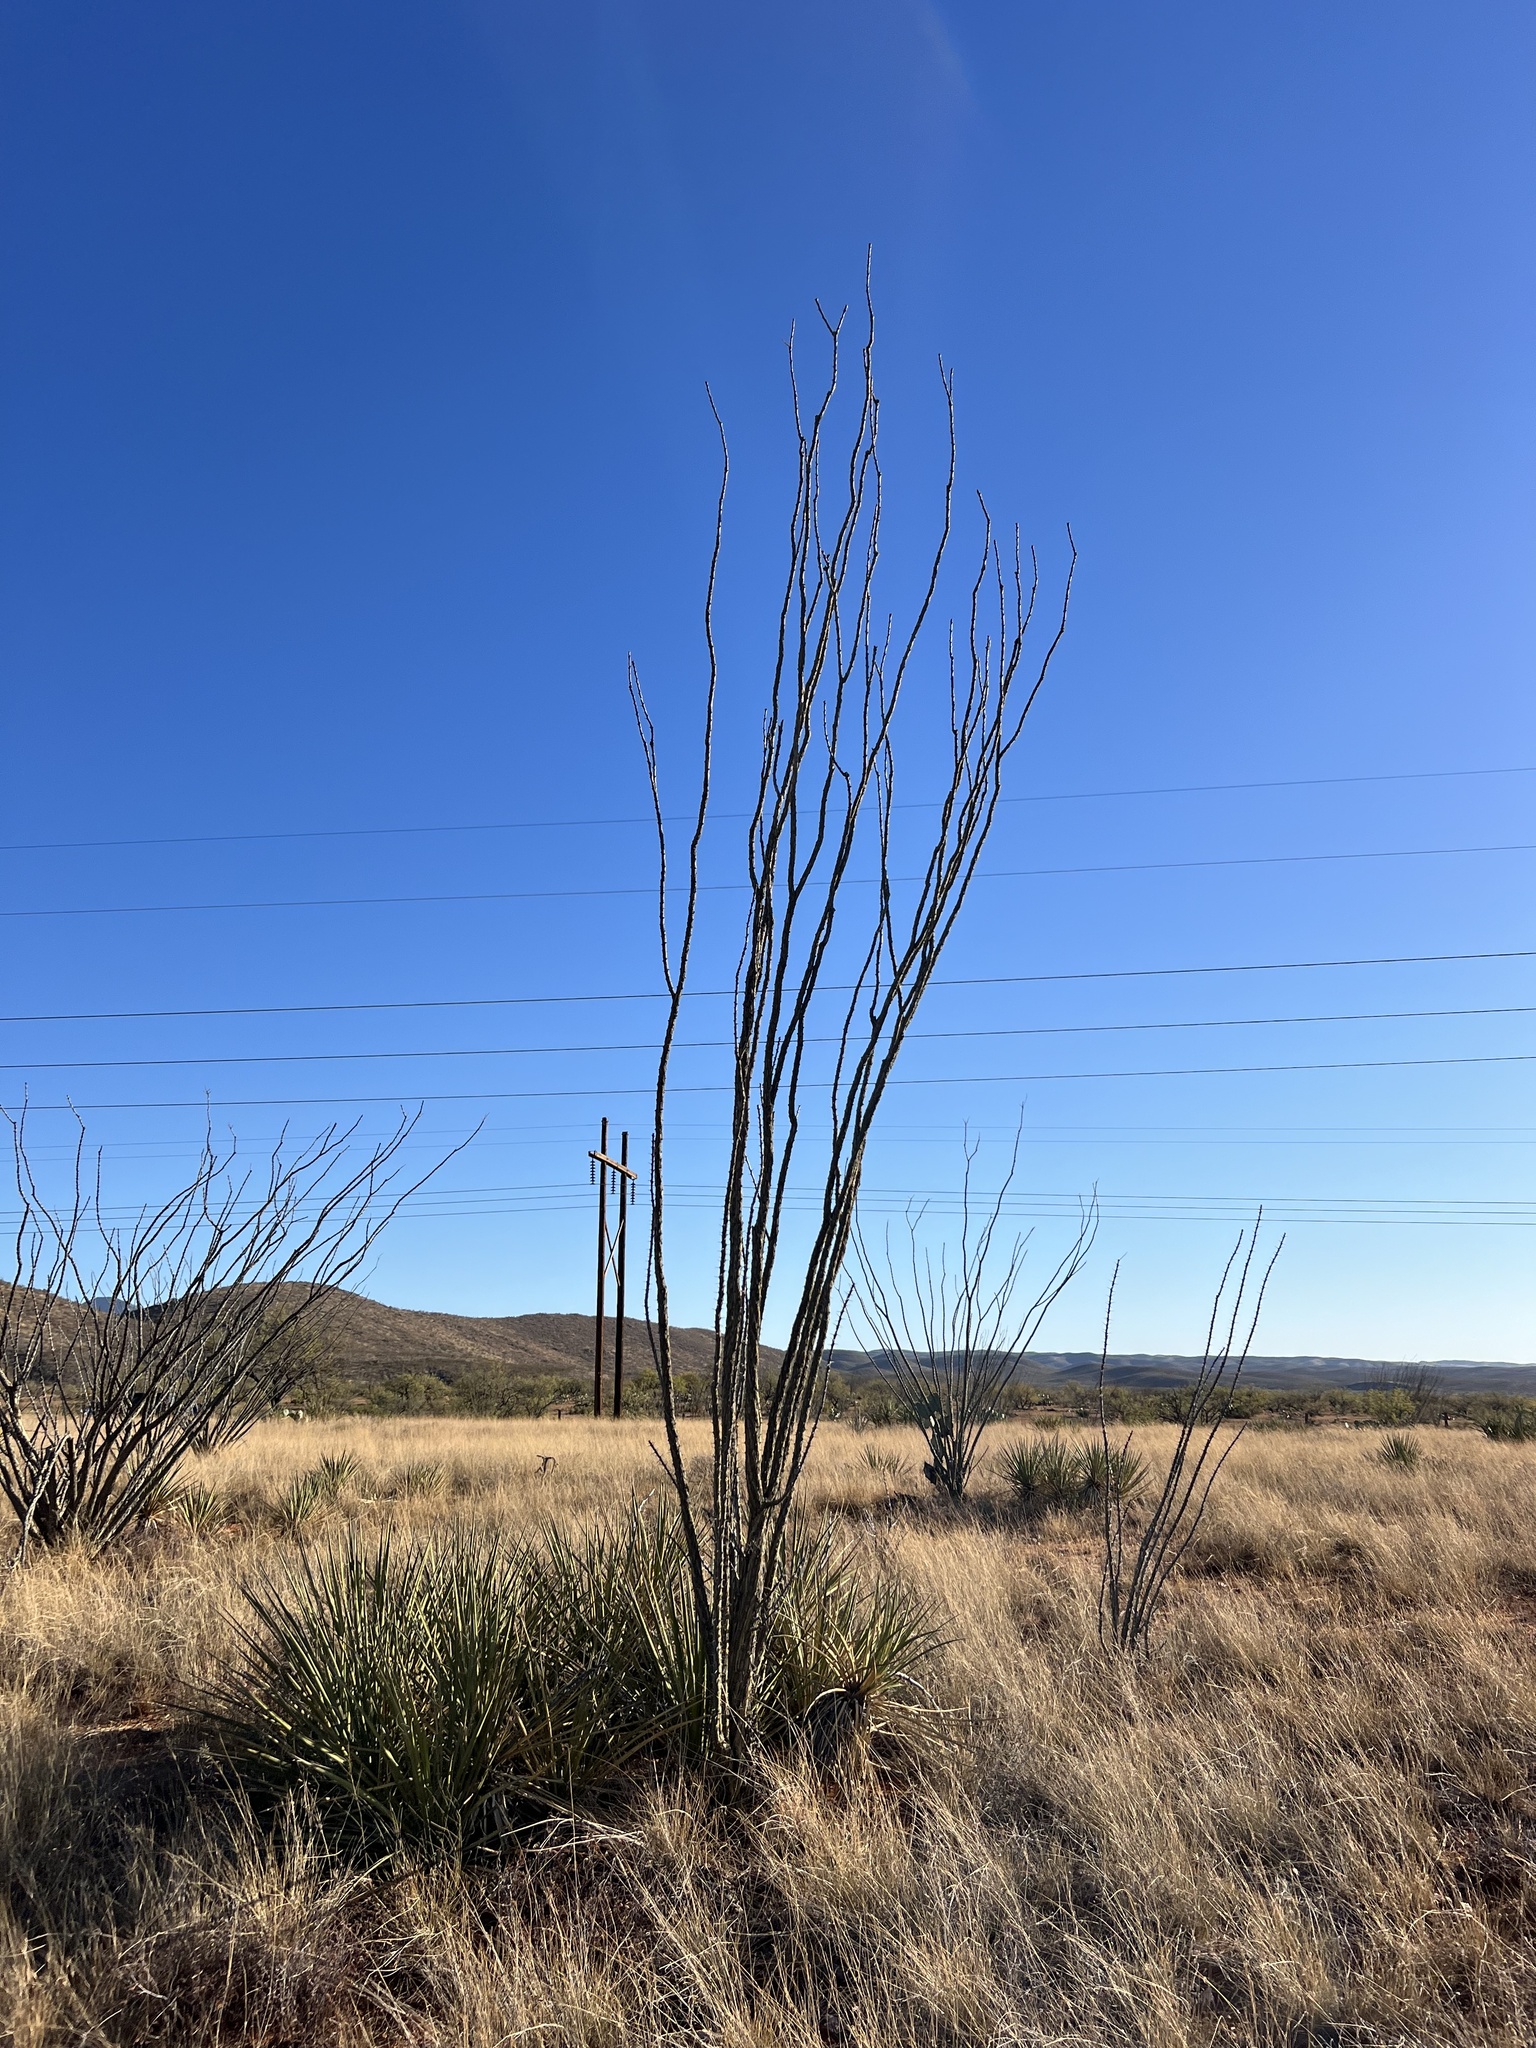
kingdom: Plantae
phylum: Tracheophyta
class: Magnoliopsida
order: Ericales
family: Fouquieriaceae
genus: Fouquieria
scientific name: Fouquieria splendens
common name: Vine-cactus
